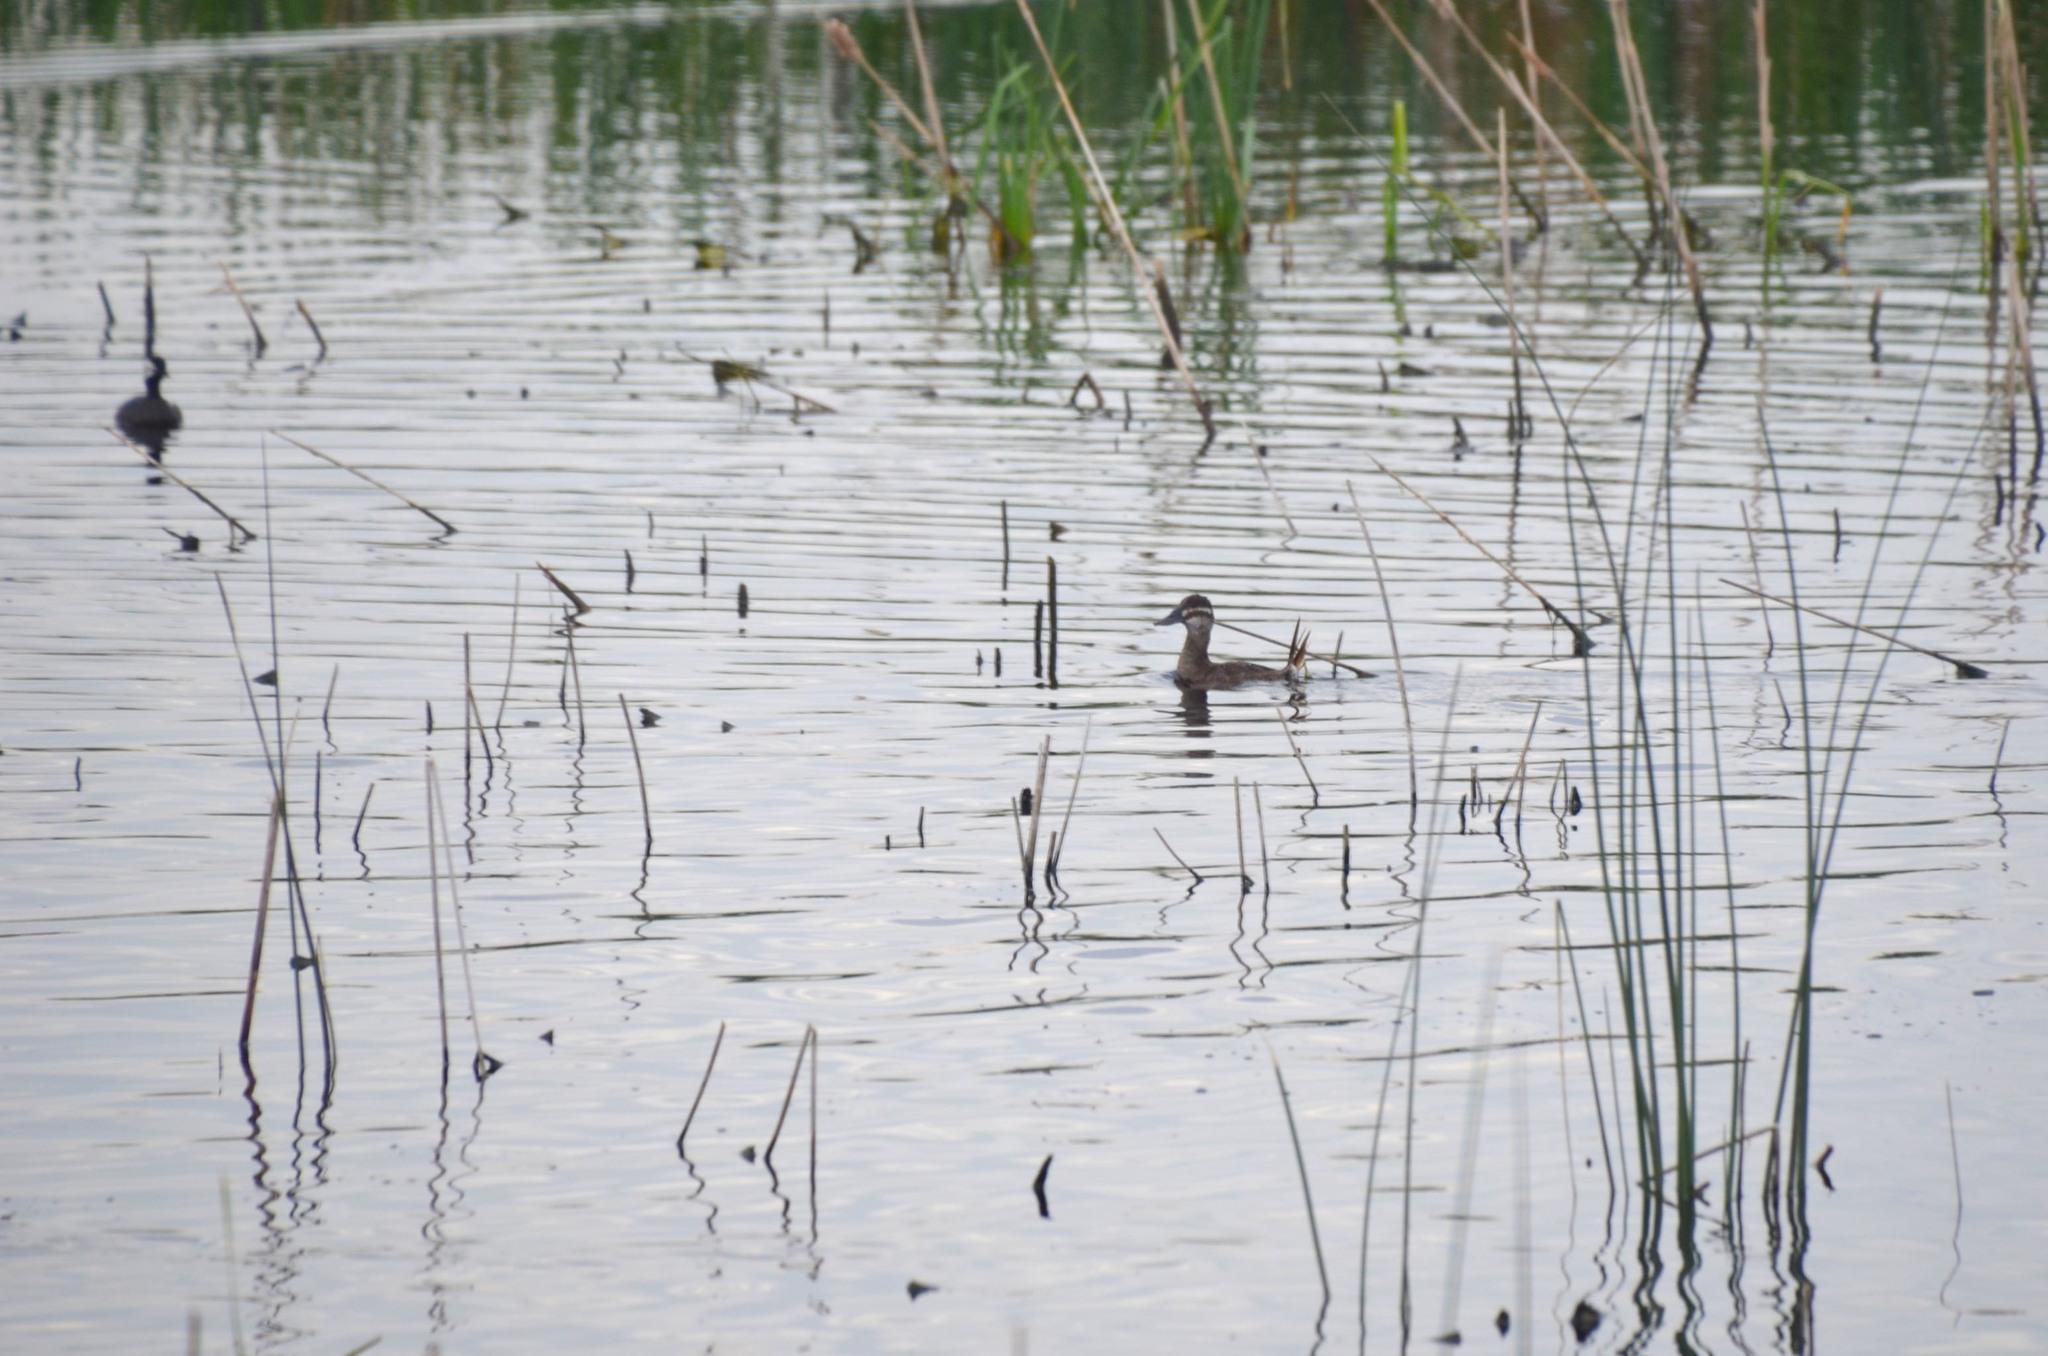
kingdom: Animalia
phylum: Chordata
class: Aves
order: Anseriformes
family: Anatidae
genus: Oxyura
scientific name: Oxyura vittata
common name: Lake duck
